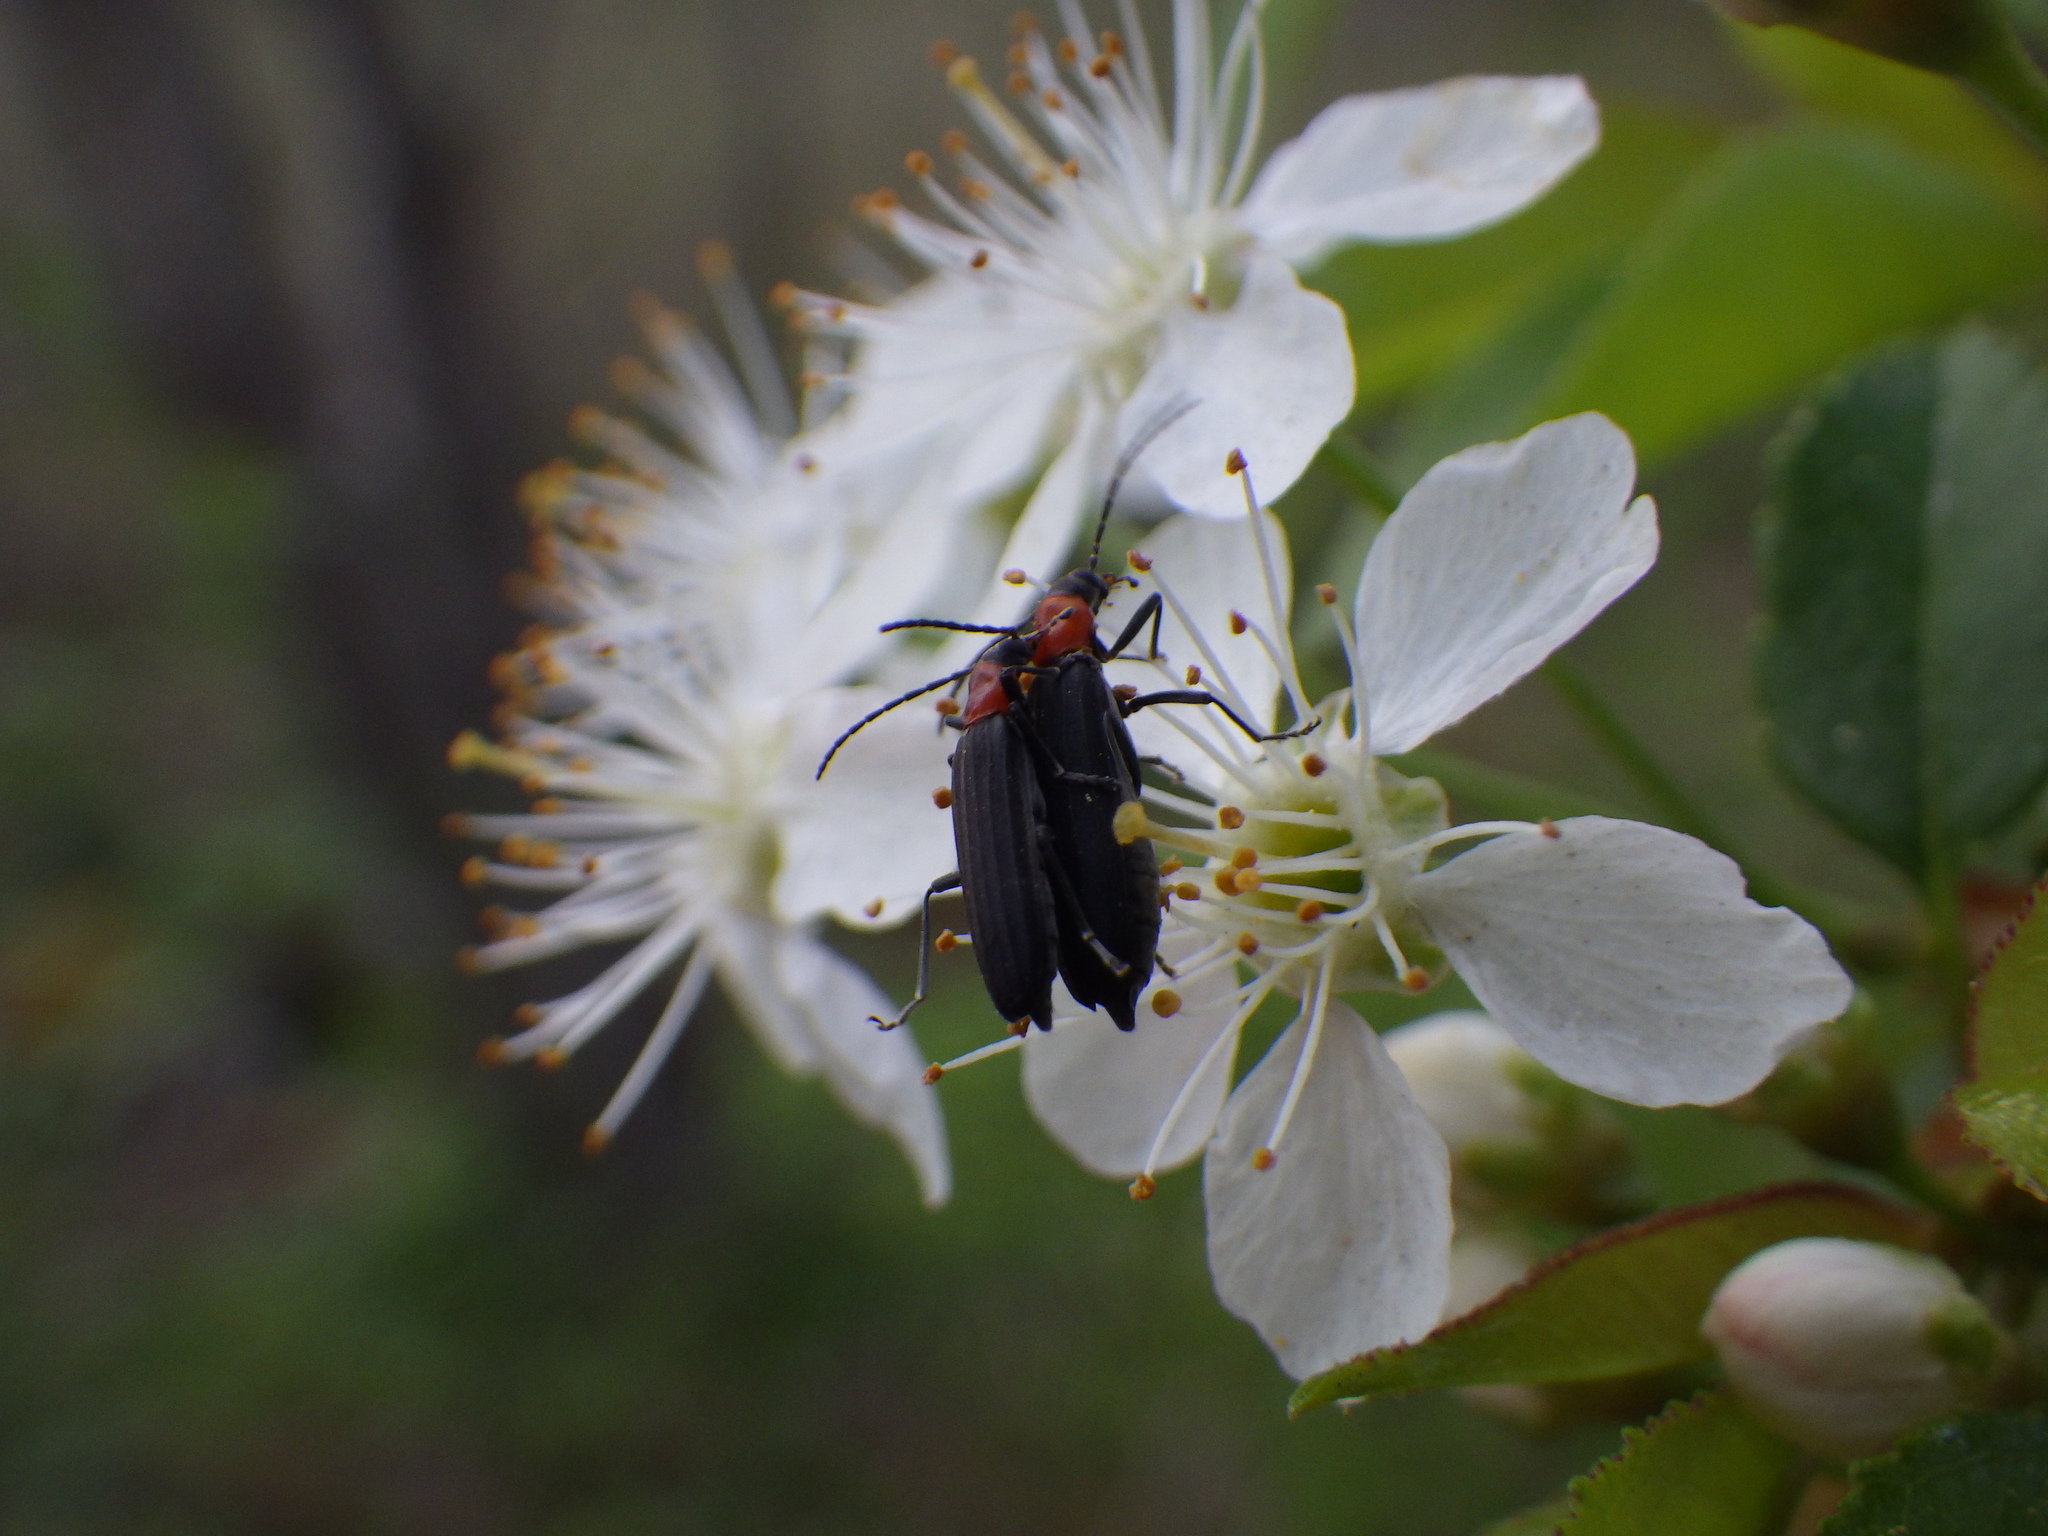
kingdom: Animalia
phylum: Arthropoda
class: Insecta
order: Coleoptera
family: Oedemeridae
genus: Ischnomera
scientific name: Ischnomera
